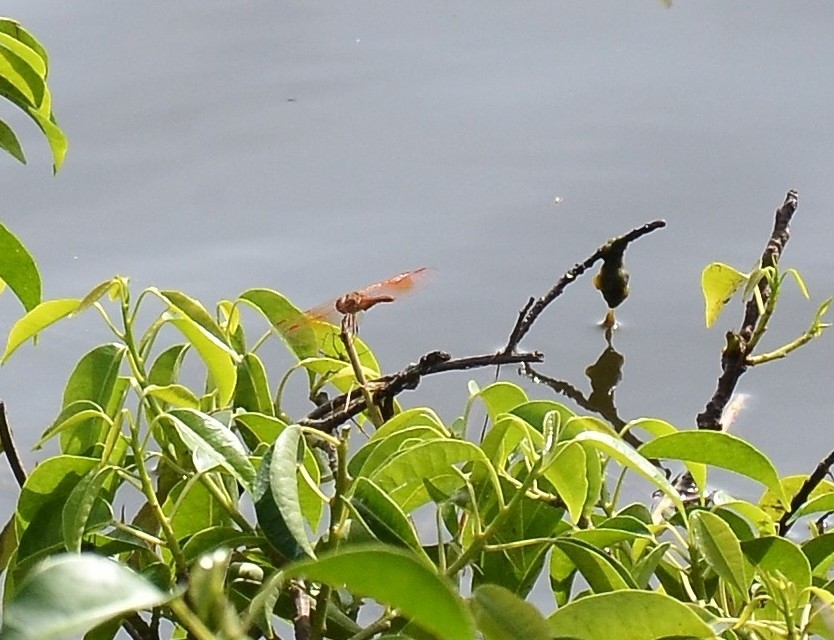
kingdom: Animalia
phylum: Arthropoda
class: Insecta
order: Odonata
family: Libellulidae
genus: Brachythemis
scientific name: Brachythemis contaminata
